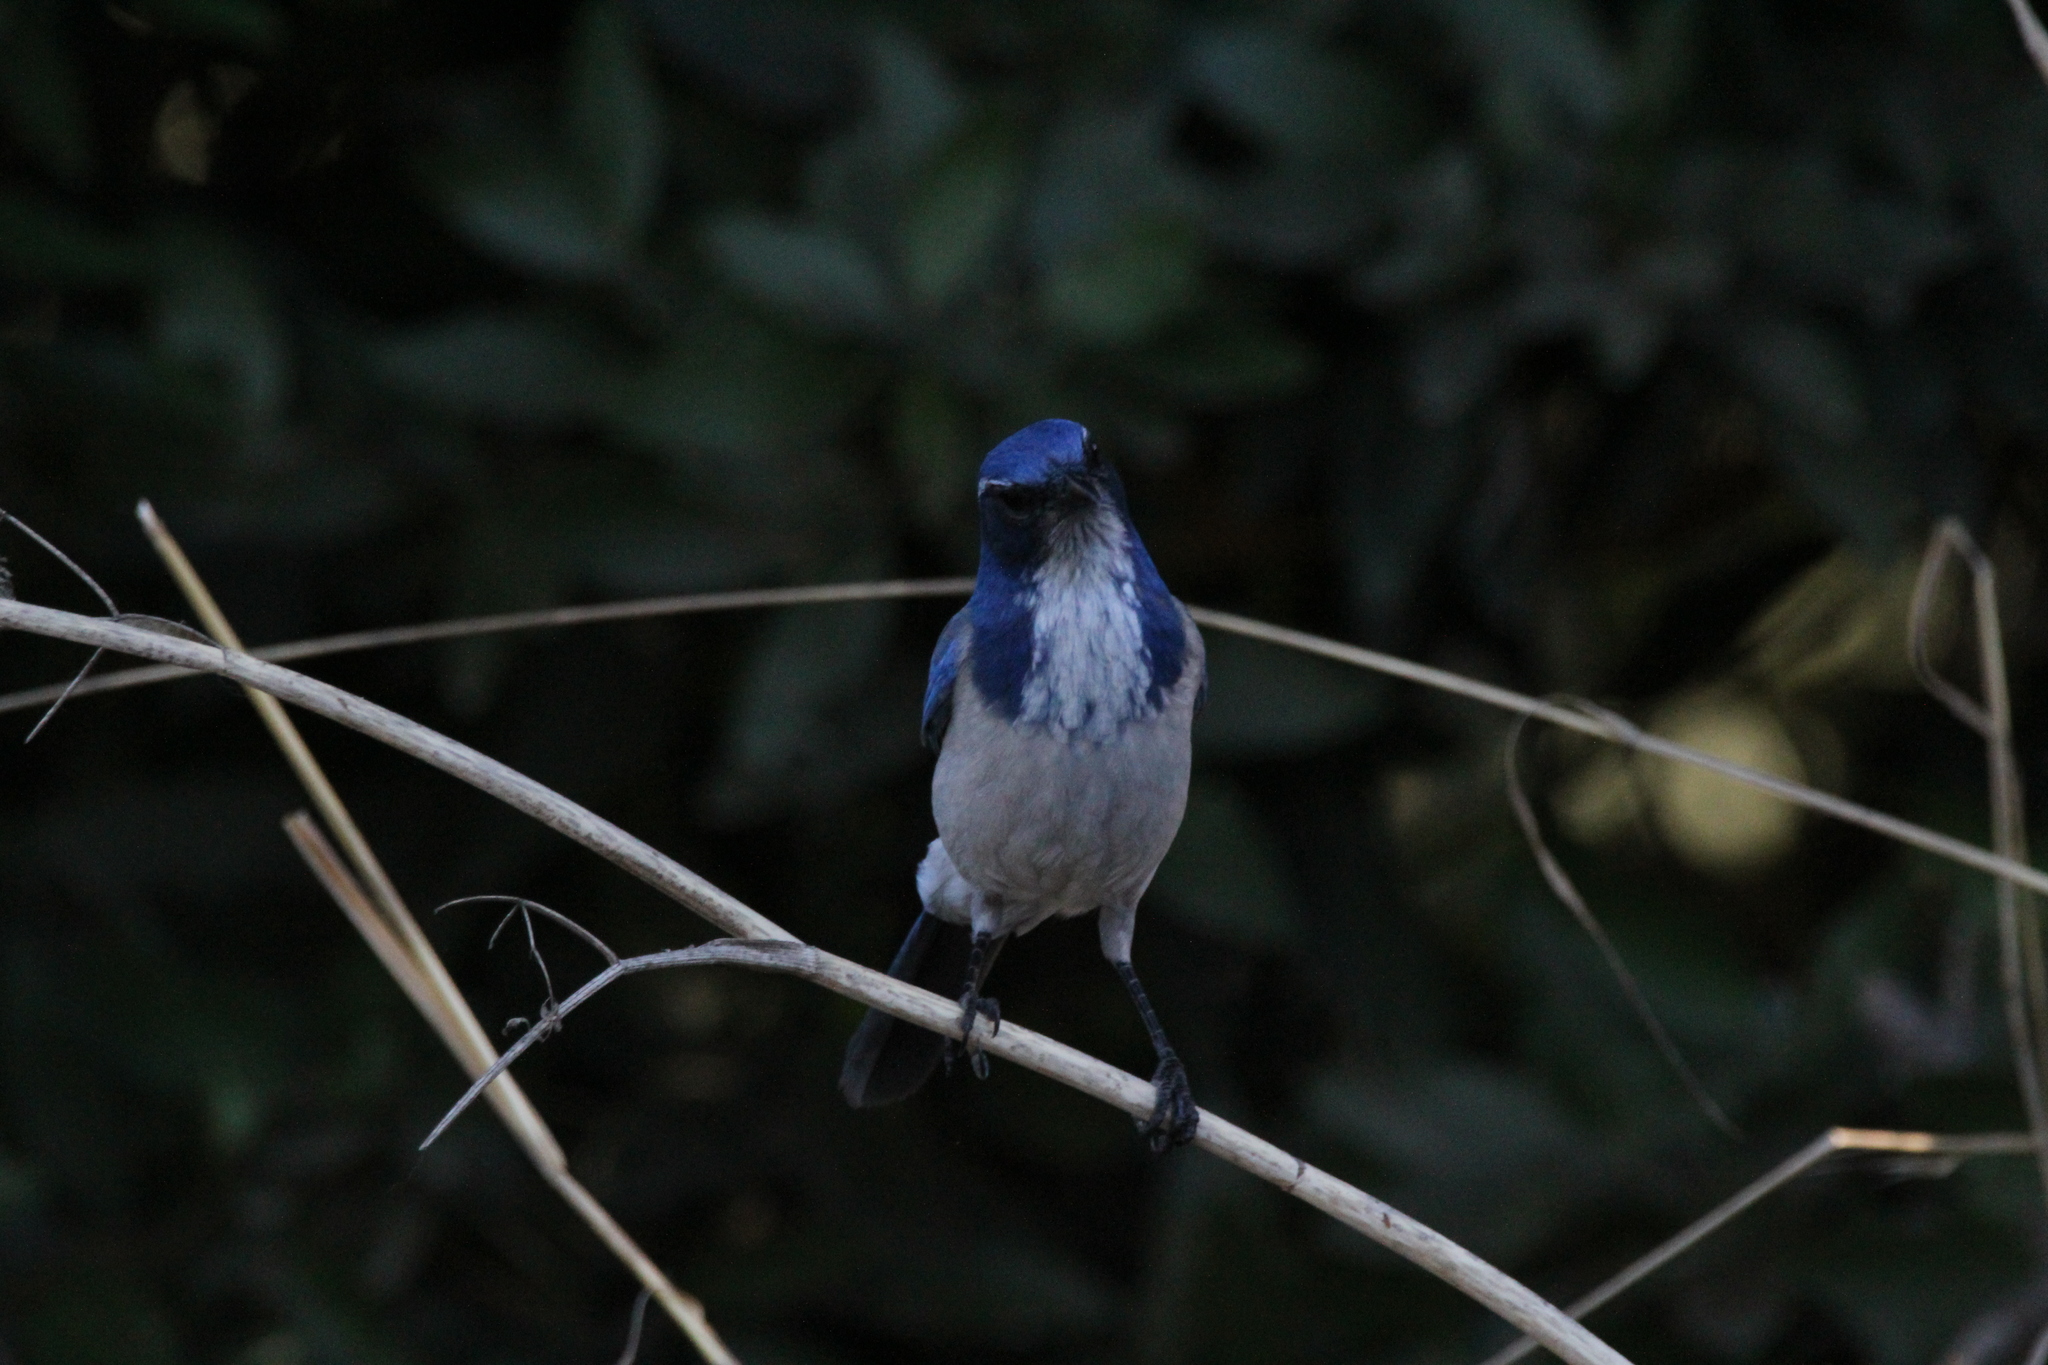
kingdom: Animalia
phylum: Chordata
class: Aves
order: Passeriformes
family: Corvidae
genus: Aphelocoma
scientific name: Aphelocoma californica
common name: California scrub-jay
